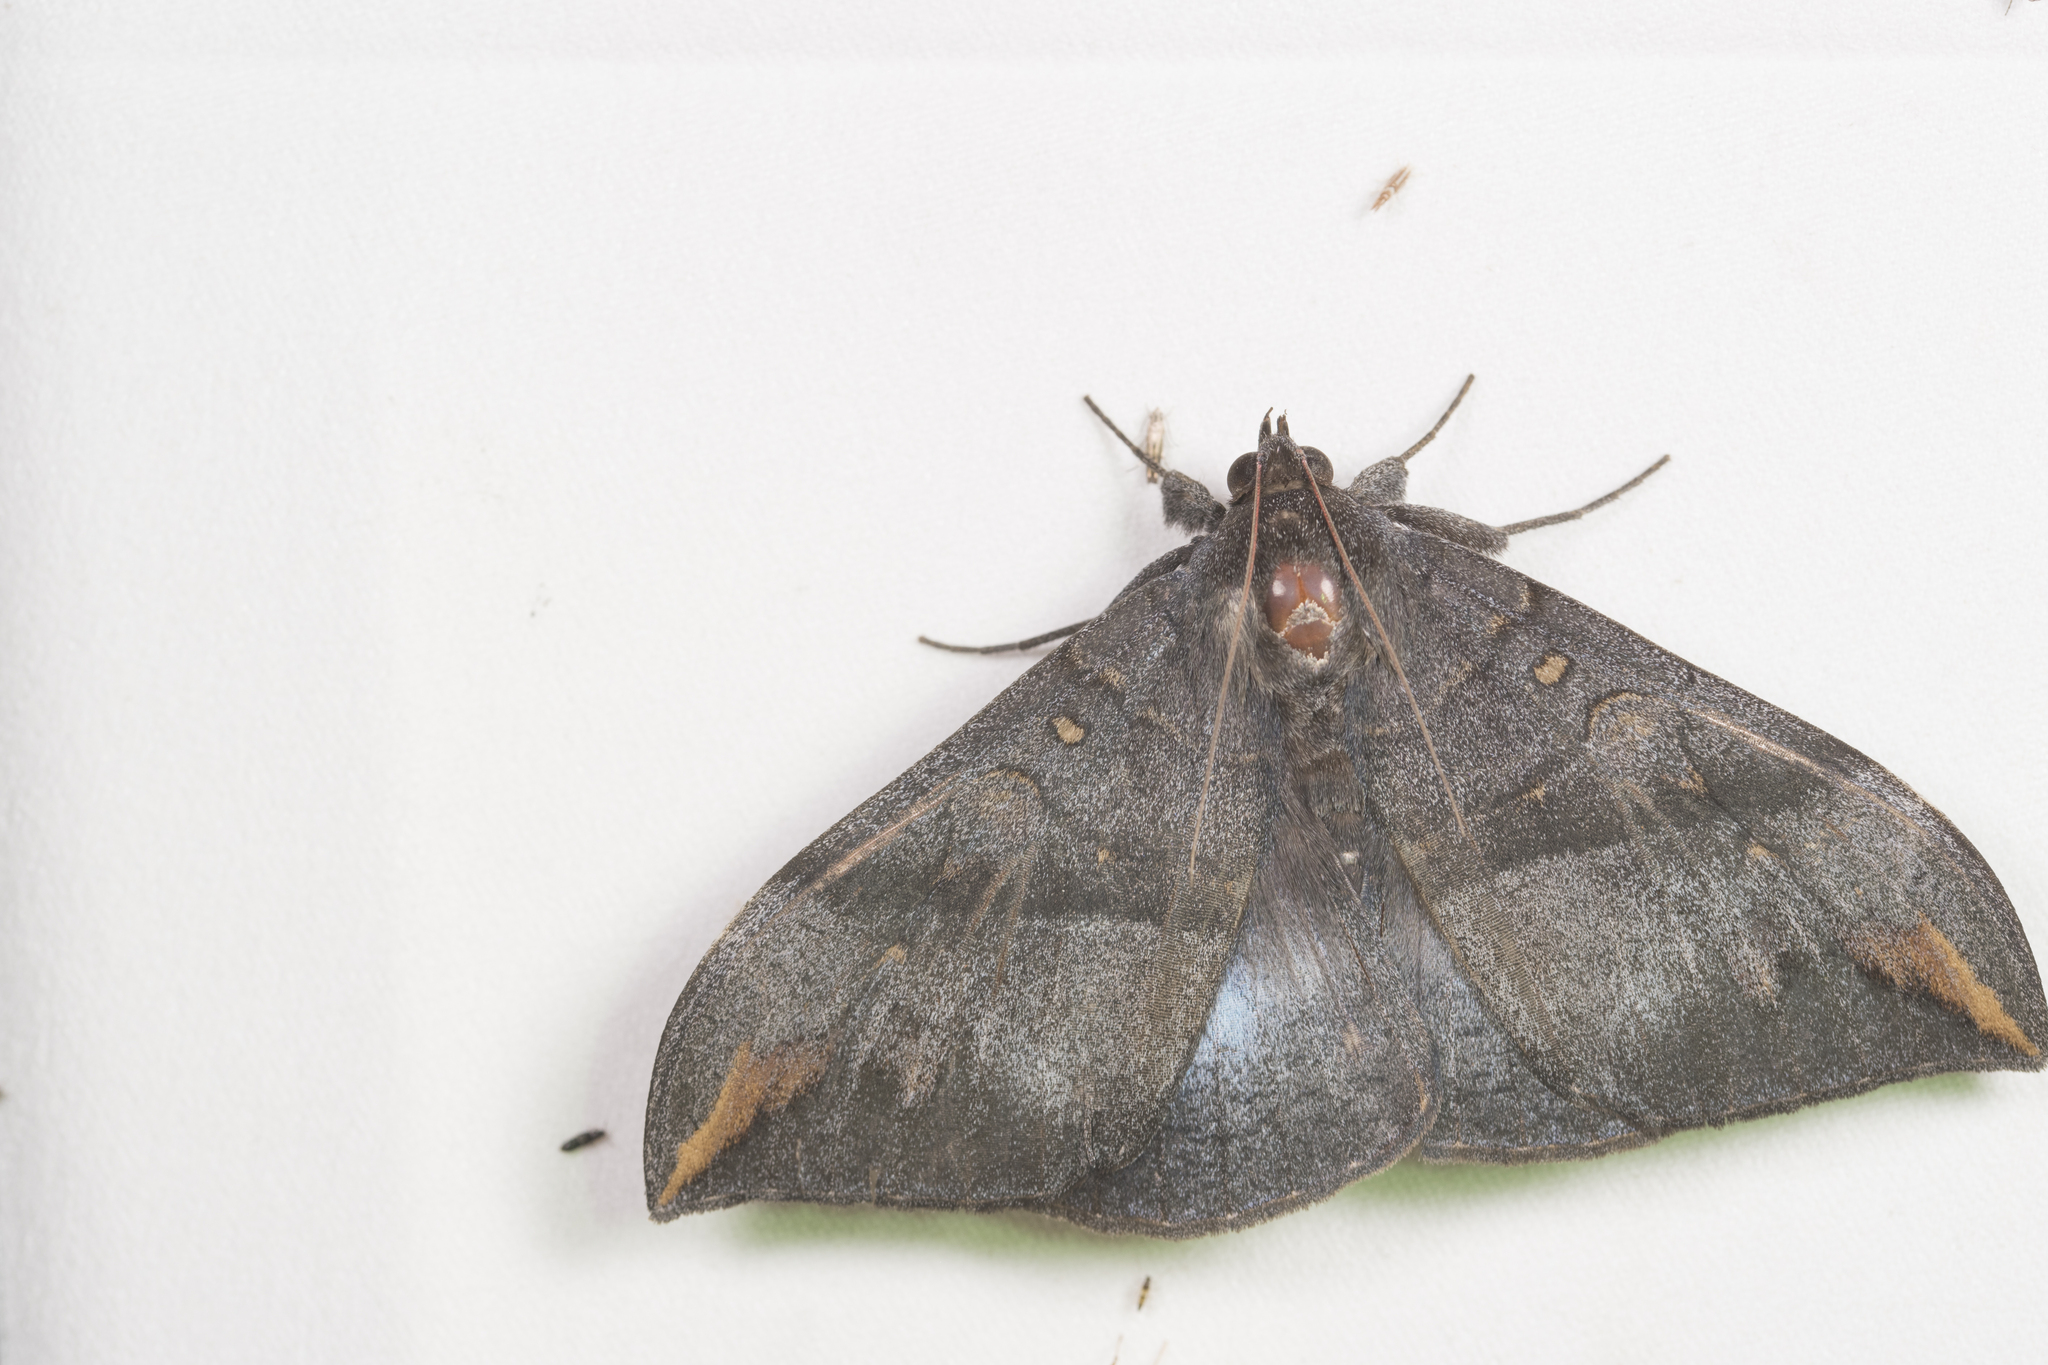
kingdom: Animalia
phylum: Arthropoda
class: Insecta
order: Lepidoptera
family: Erebidae
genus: Ischyja
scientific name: Ischyja ferrifracta
